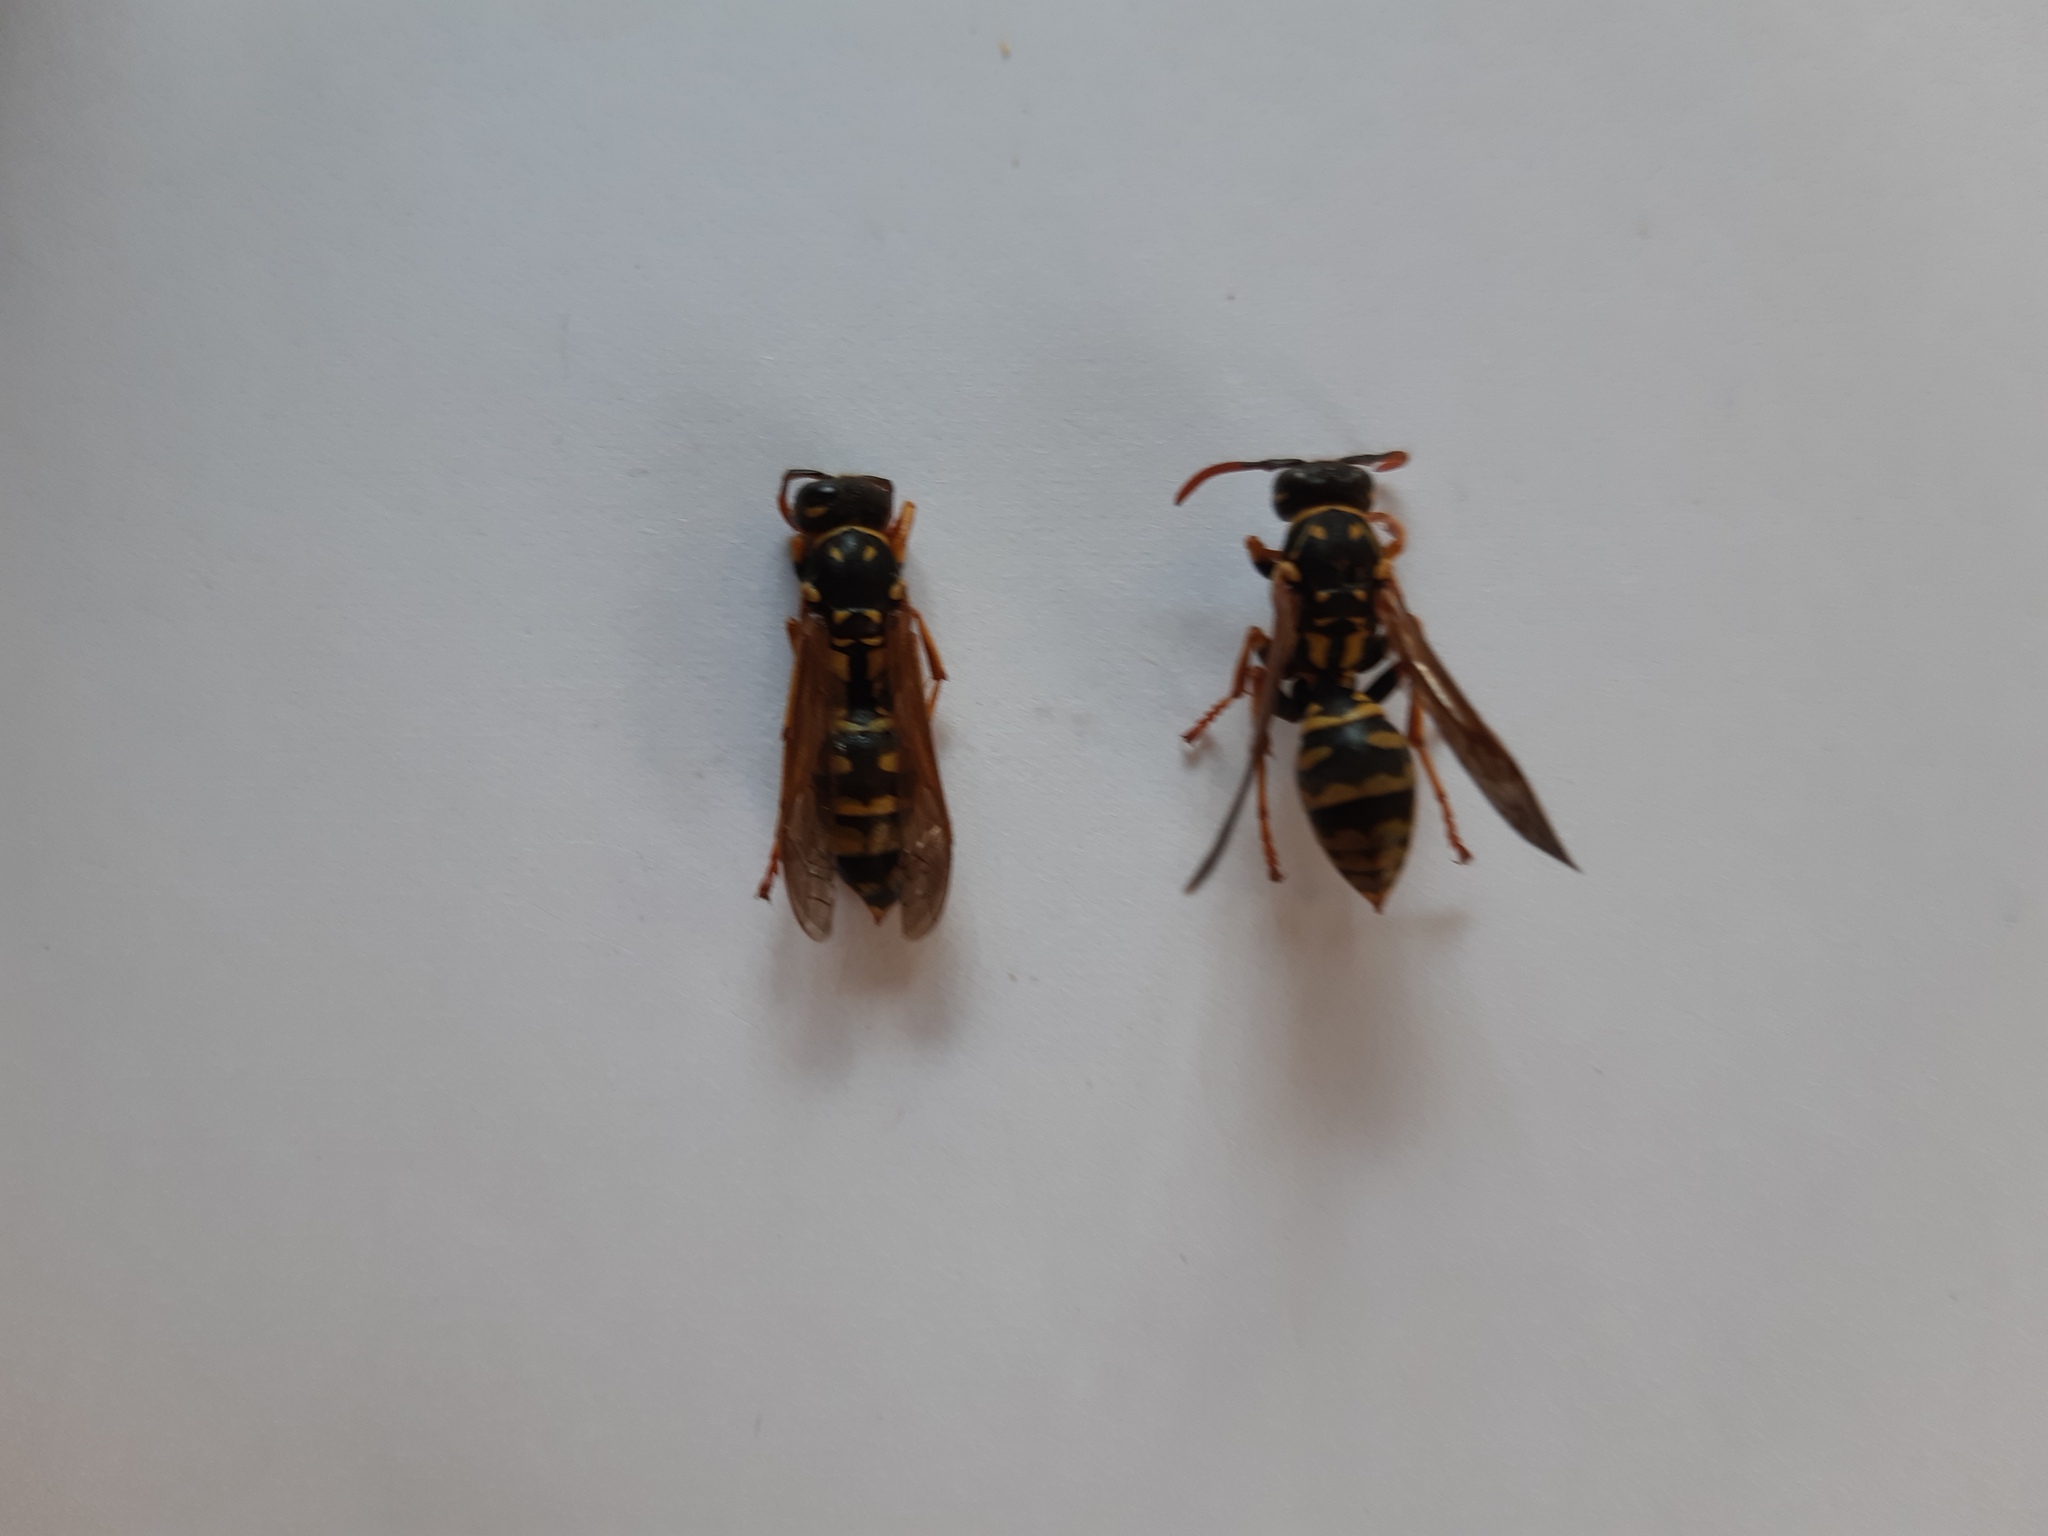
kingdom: Animalia
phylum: Arthropoda
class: Insecta
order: Hymenoptera
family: Eumenidae
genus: Polistes
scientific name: Polistes dominula
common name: Paper wasp
